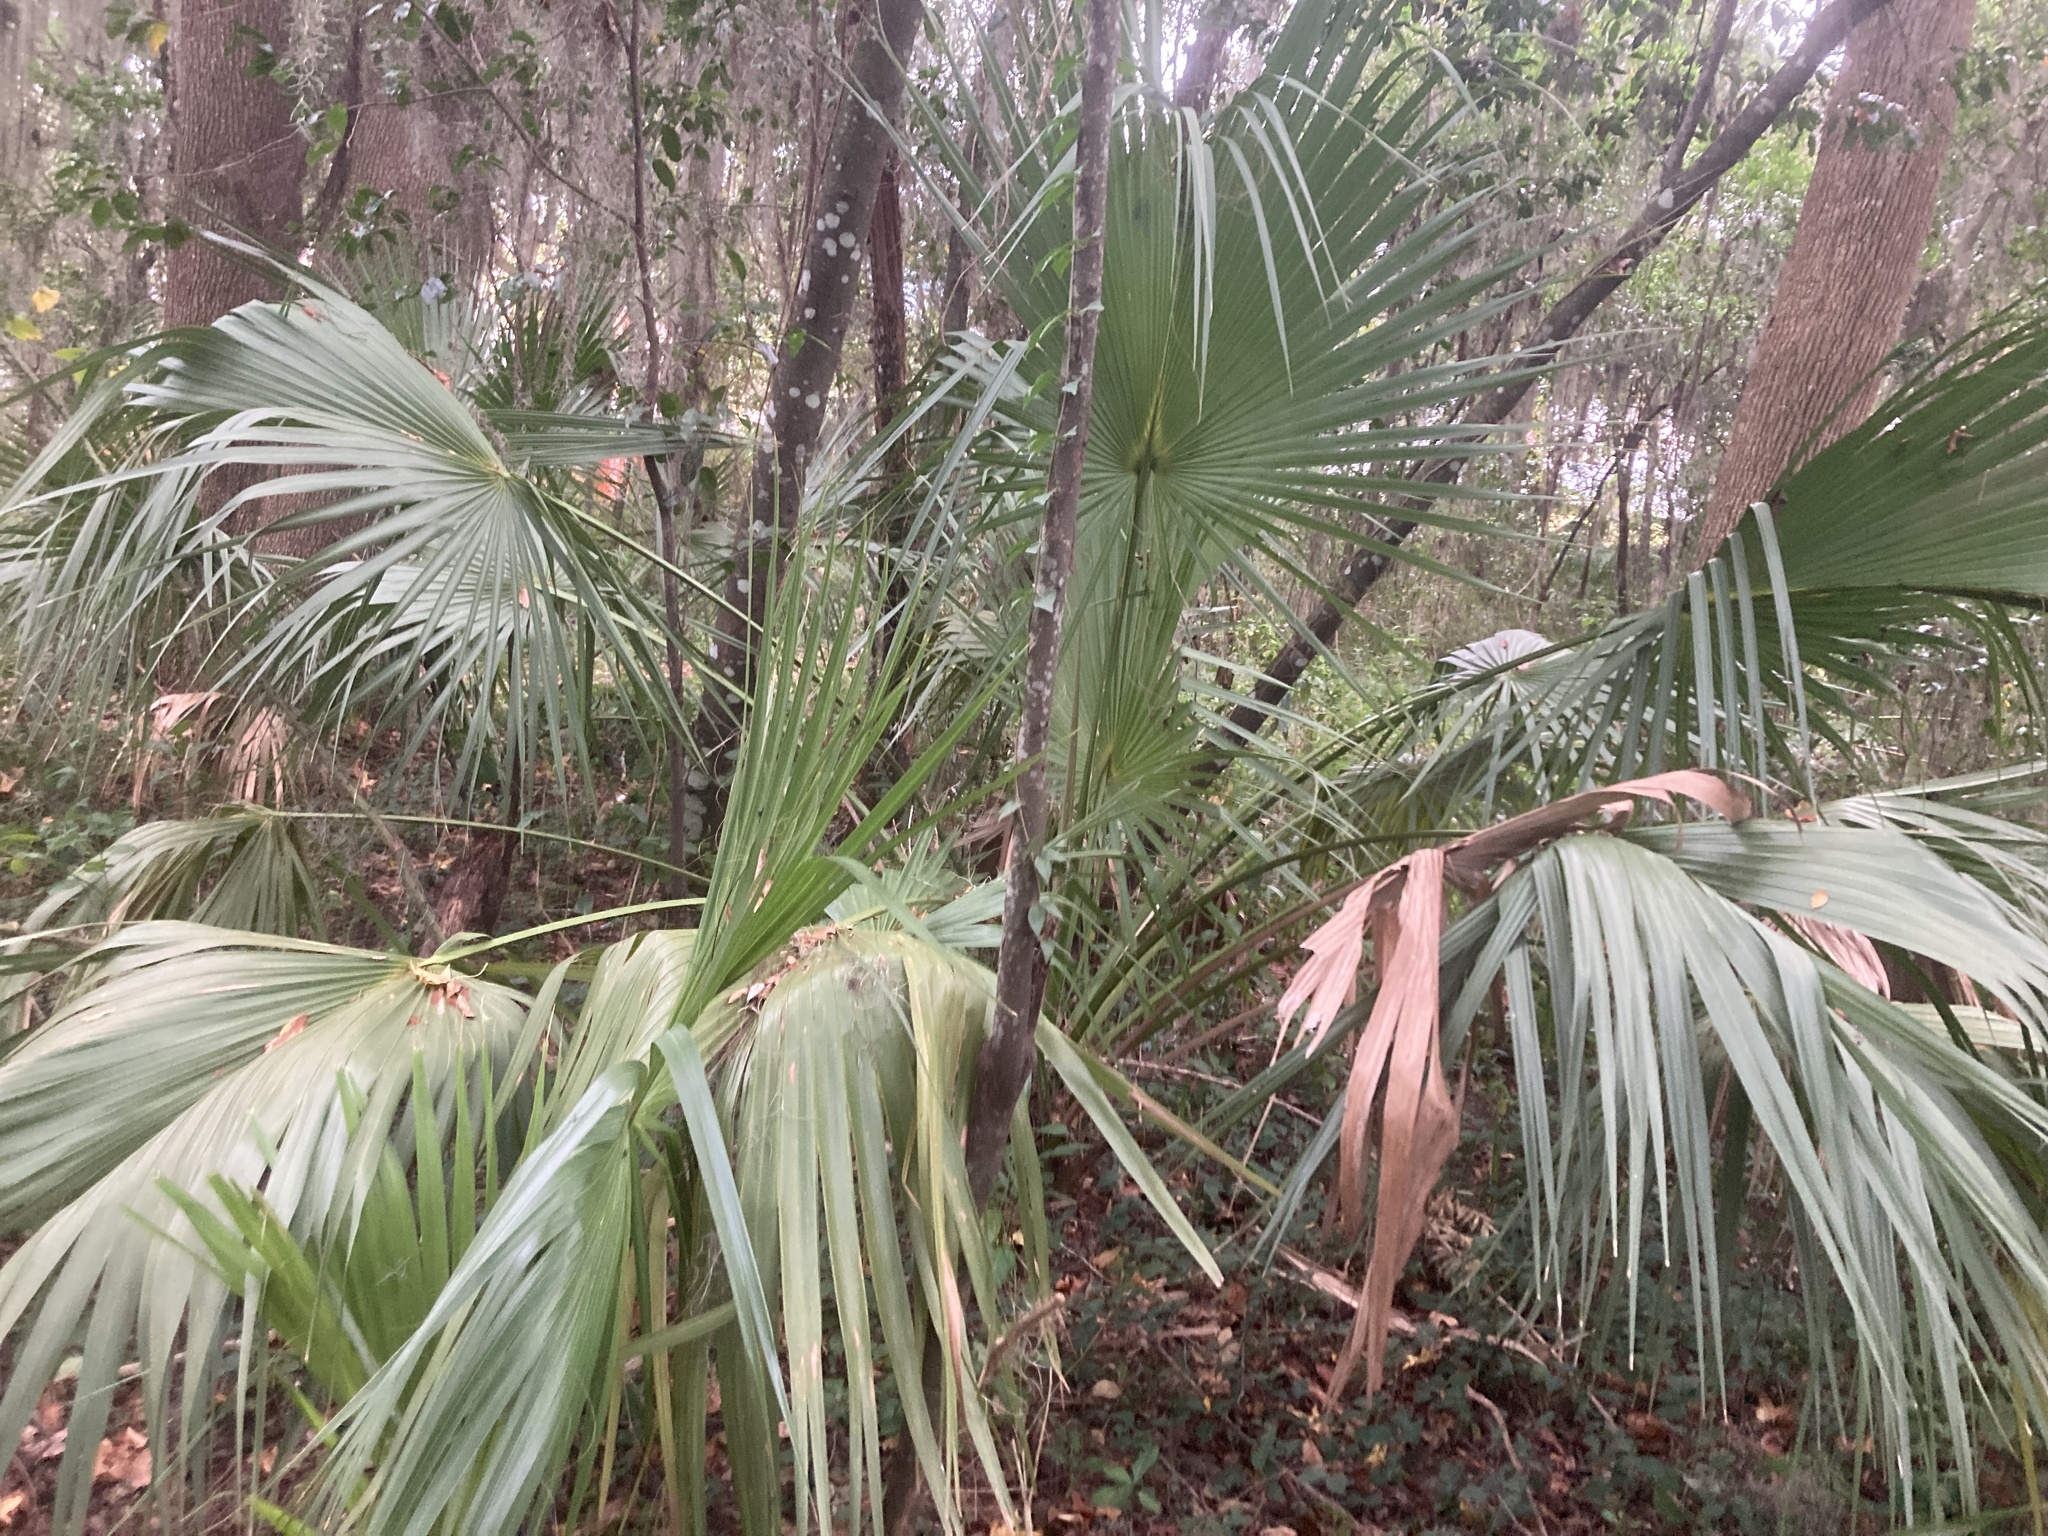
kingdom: Plantae
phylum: Tracheophyta
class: Liliopsida
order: Arecales
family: Arecaceae
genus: Sabal
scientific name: Sabal palmetto
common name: Blue palmetto
